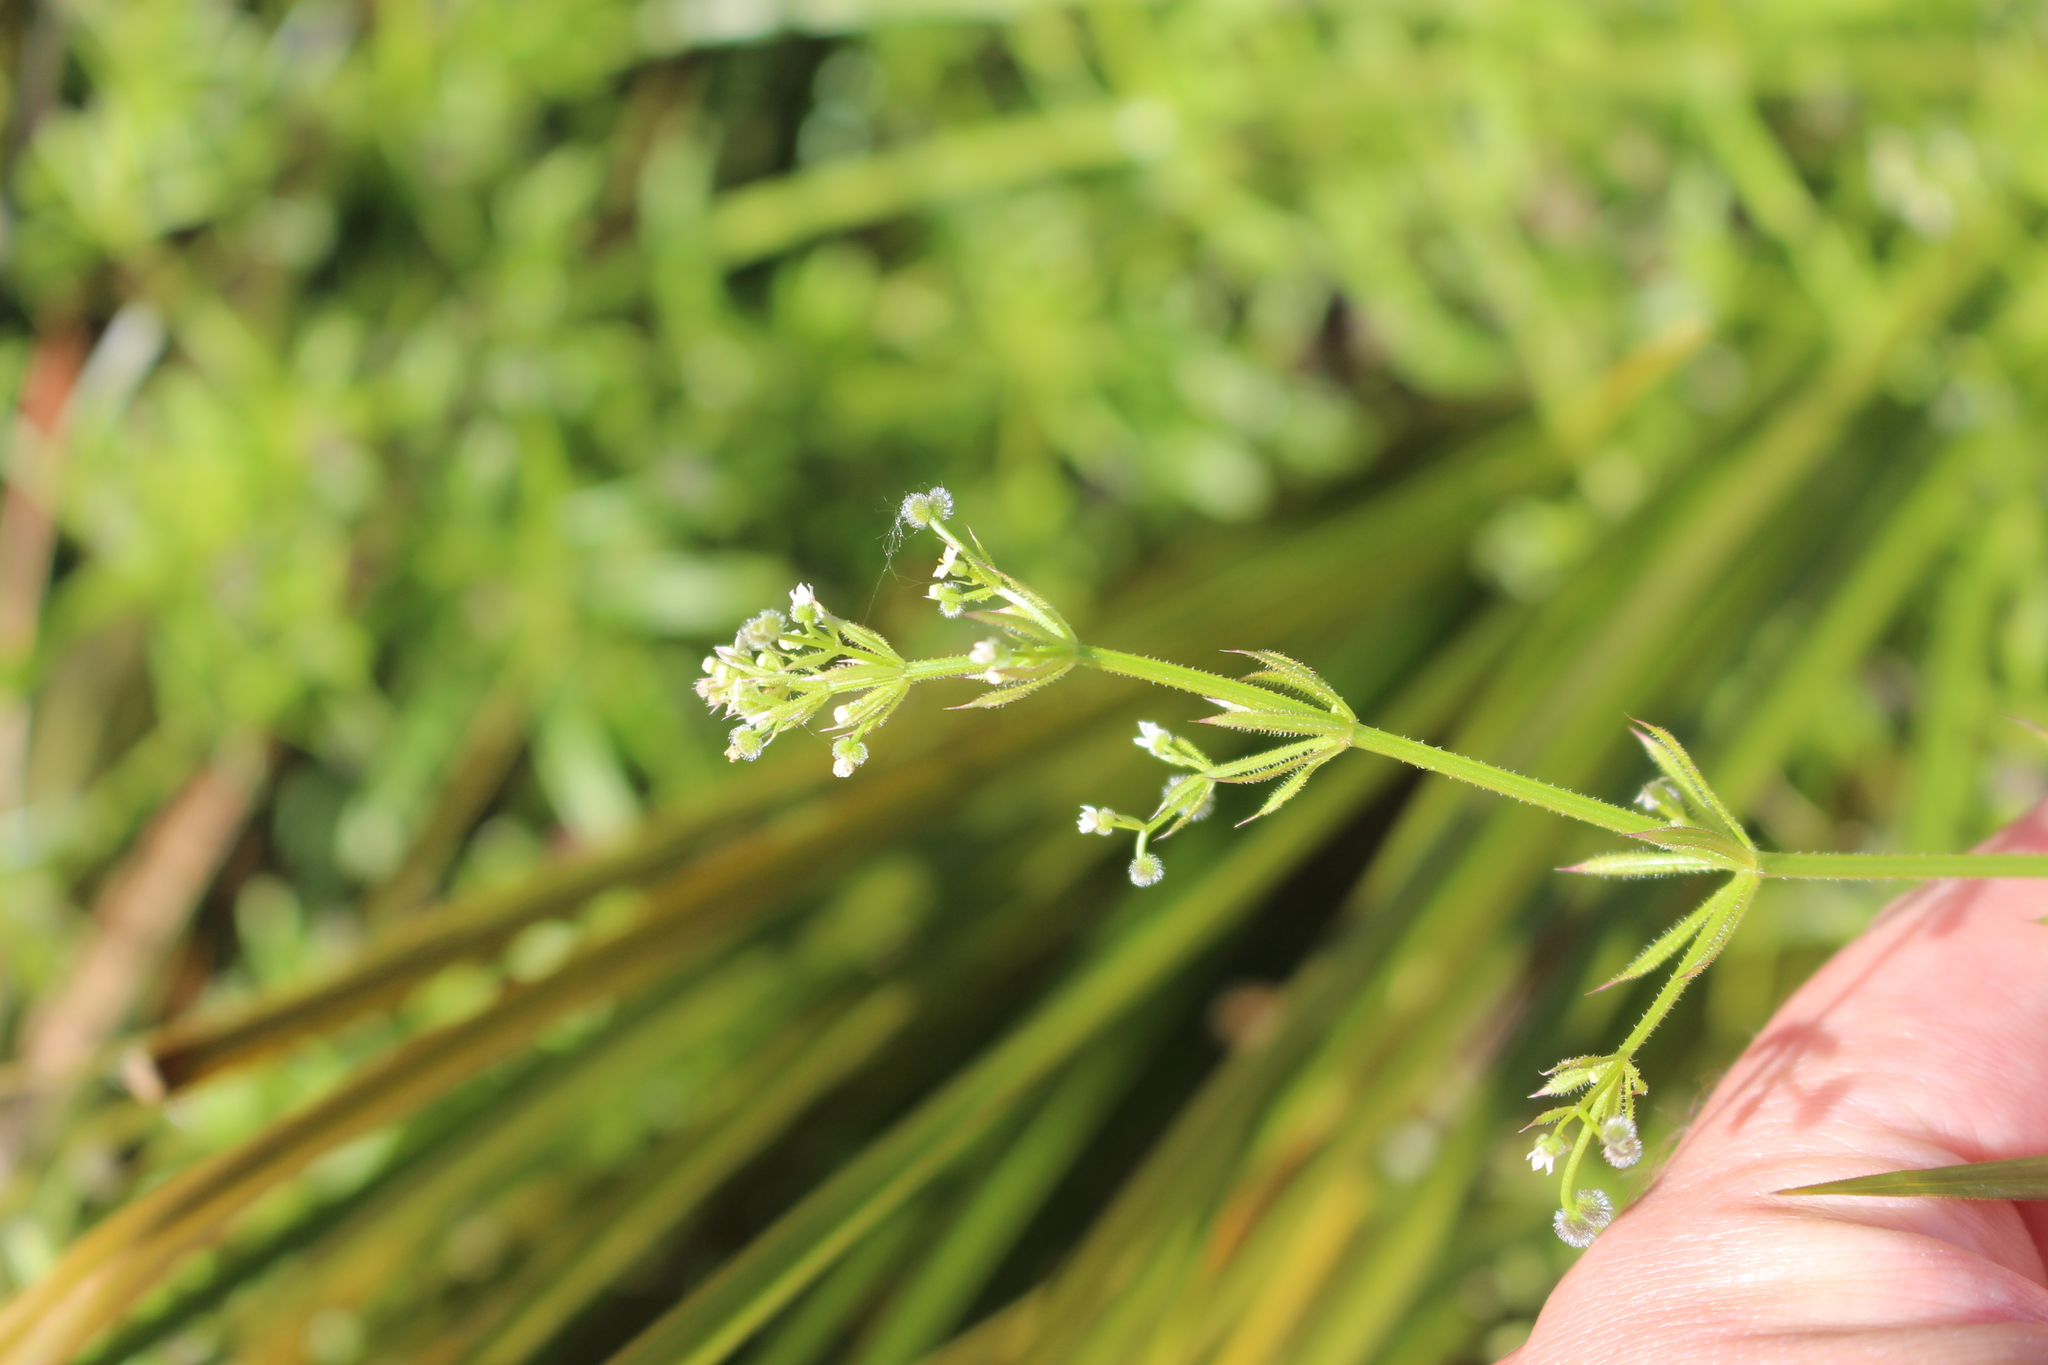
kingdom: Plantae
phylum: Tracheophyta
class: Magnoliopsida
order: Gentianales
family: Rubiaceae
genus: Galium
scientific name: Galium aparine
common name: Cleavers
